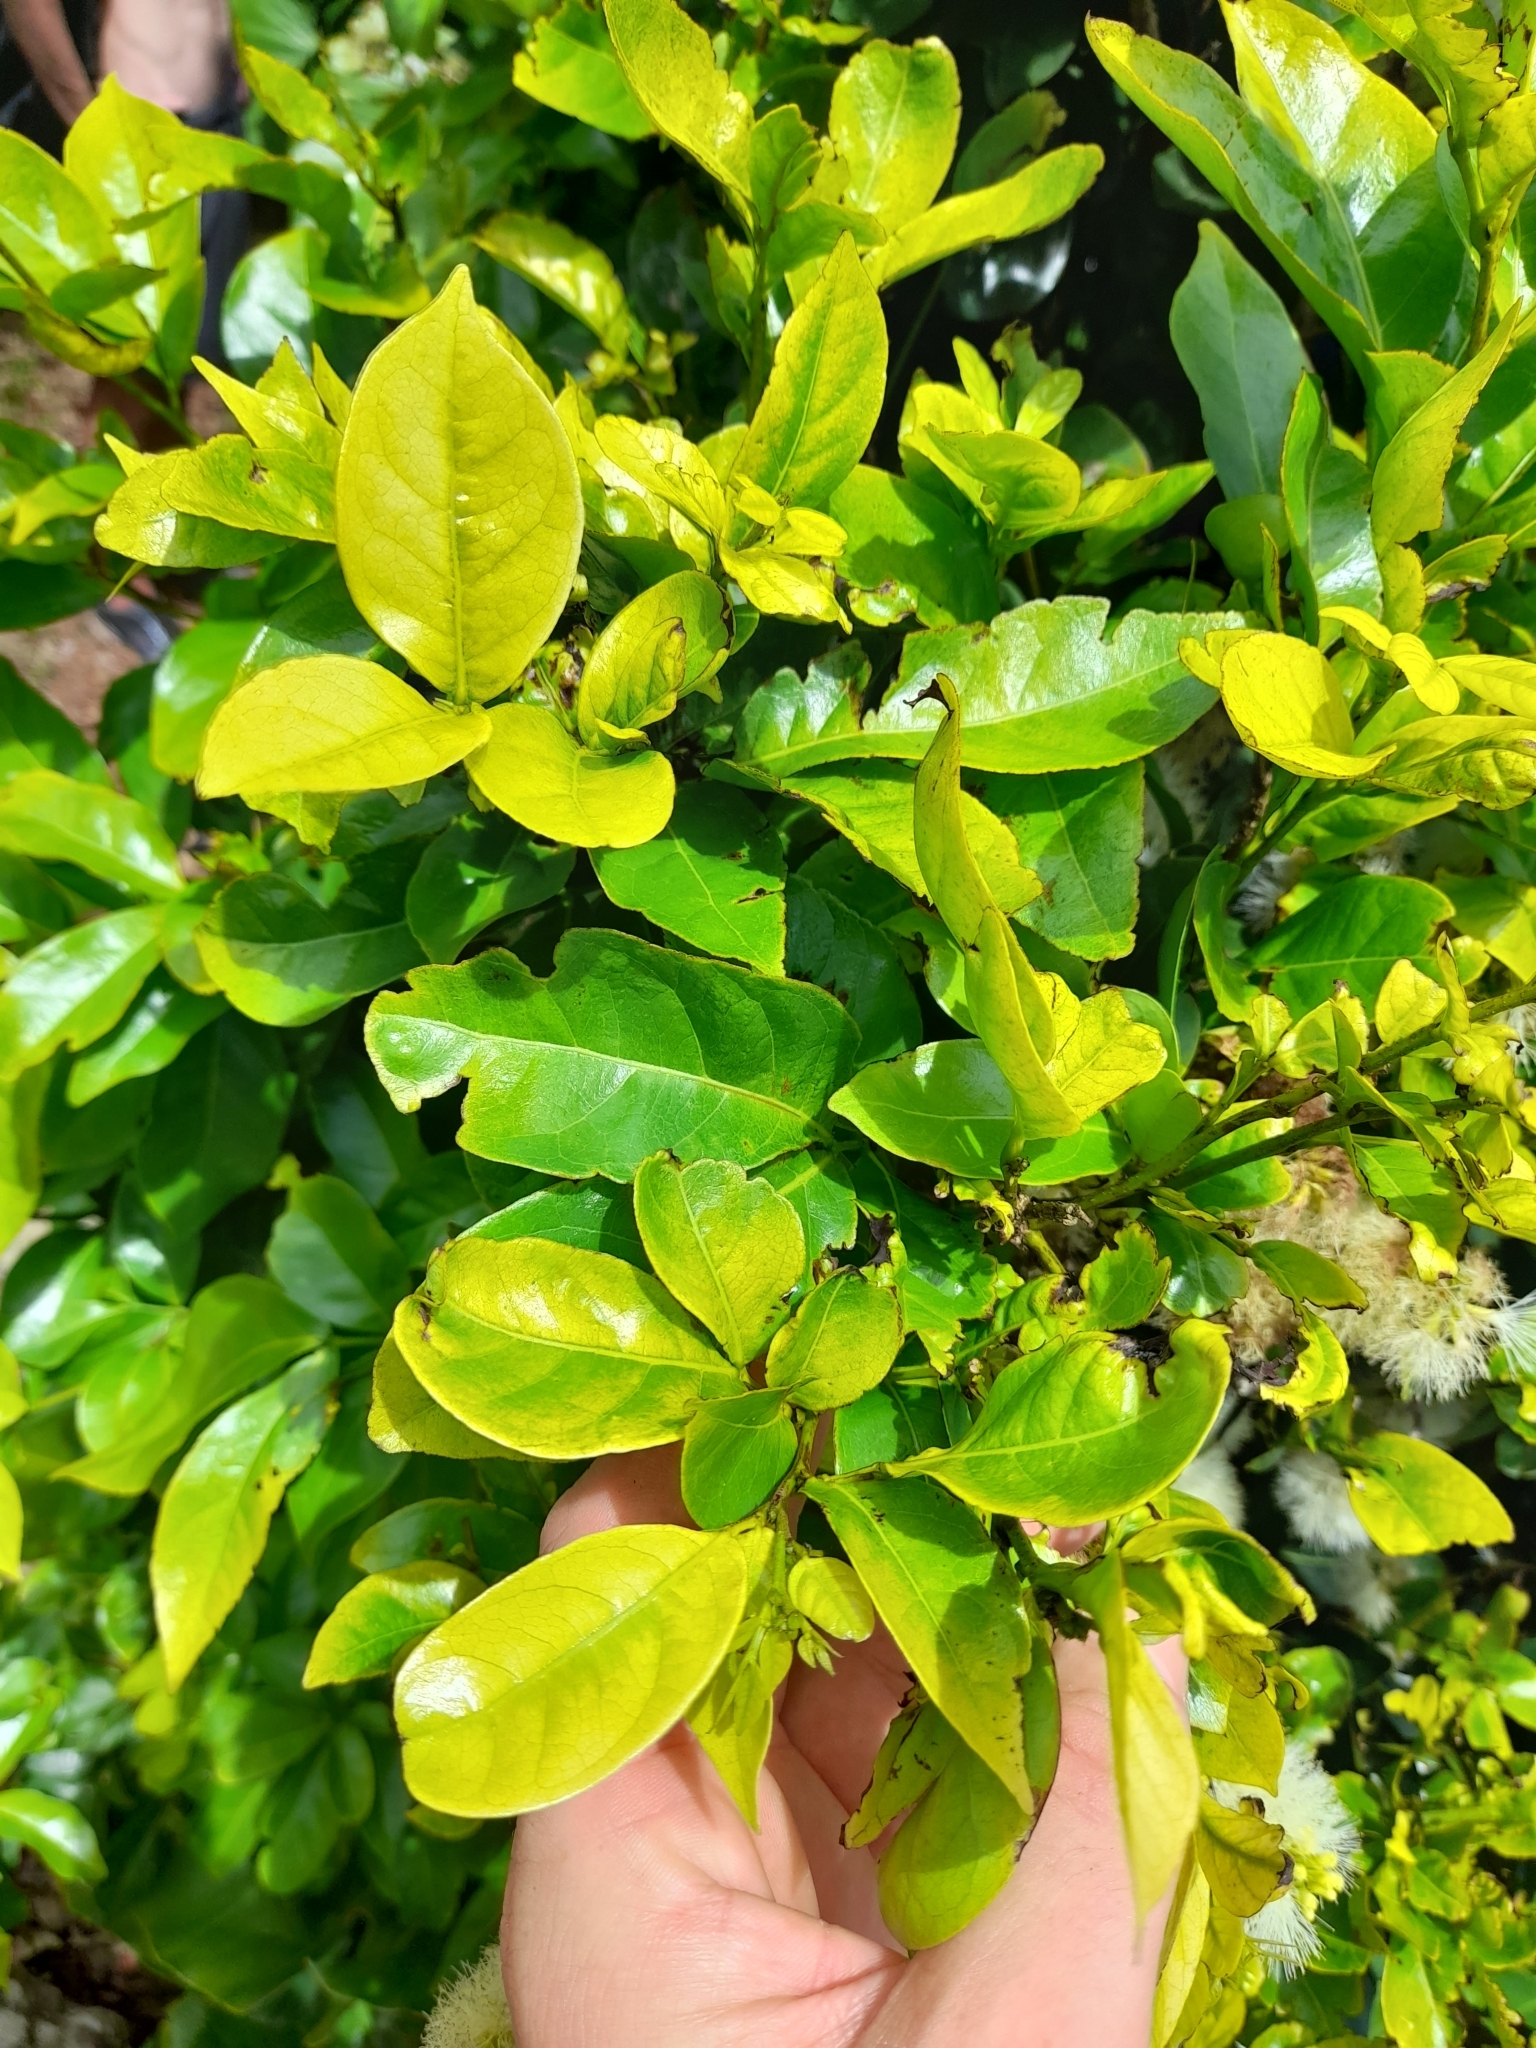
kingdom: Plantae
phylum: Tracheophyta
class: Magnoliopsida
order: Fabales
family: Fabaceae
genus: Inga
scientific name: Inga laurina
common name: Red wood
